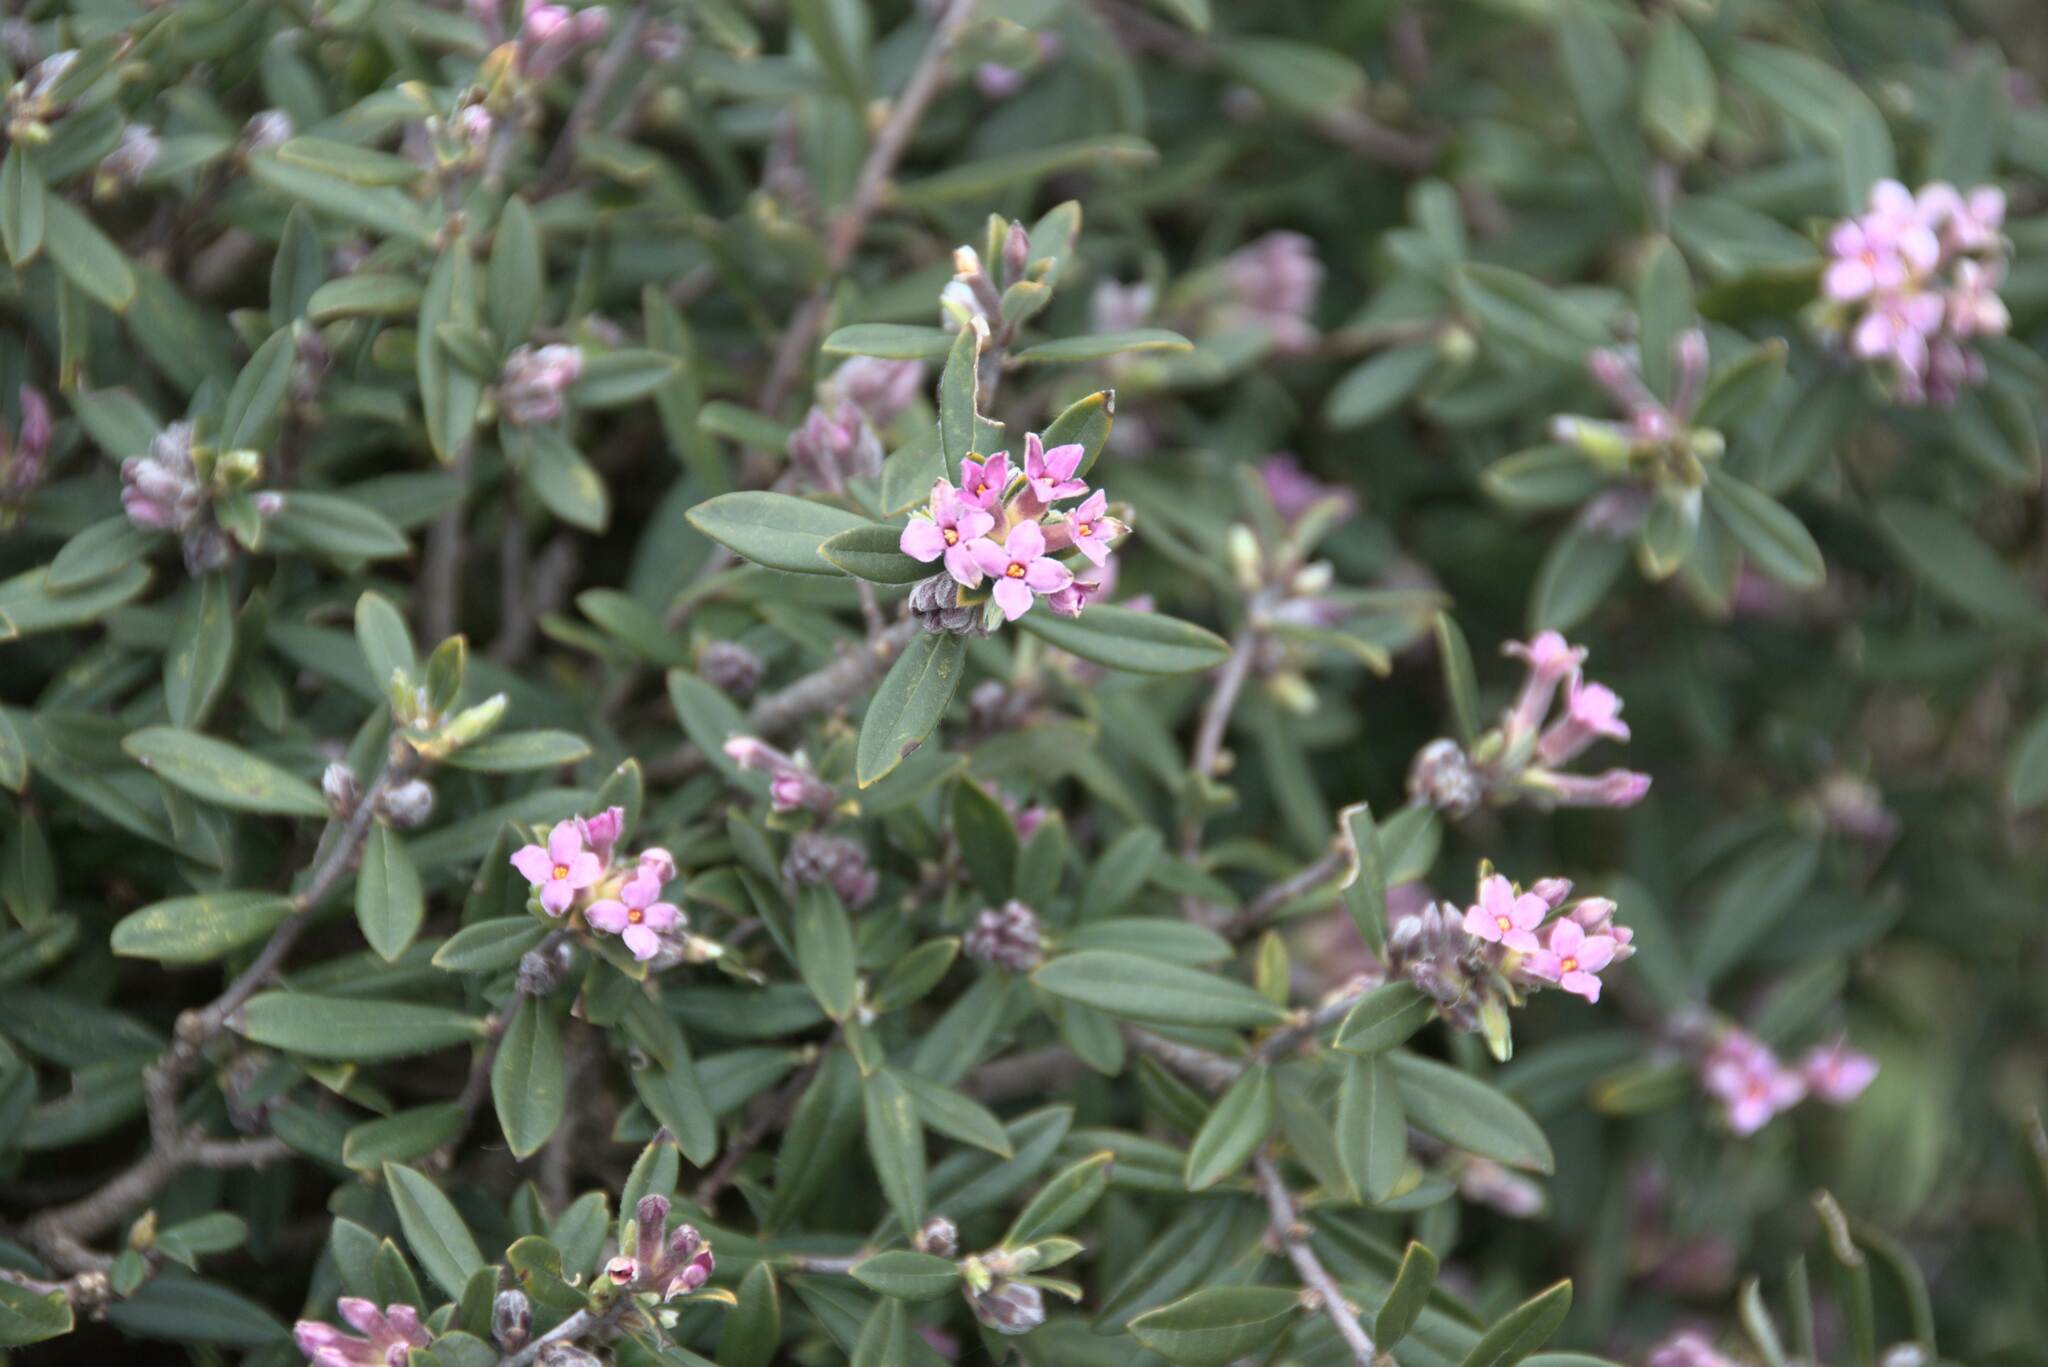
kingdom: Plantae
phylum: Tracheophyta
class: Magnoliopsida
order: Malvales
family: Thymelaeaceae
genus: Daphne
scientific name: Daphne sericea
